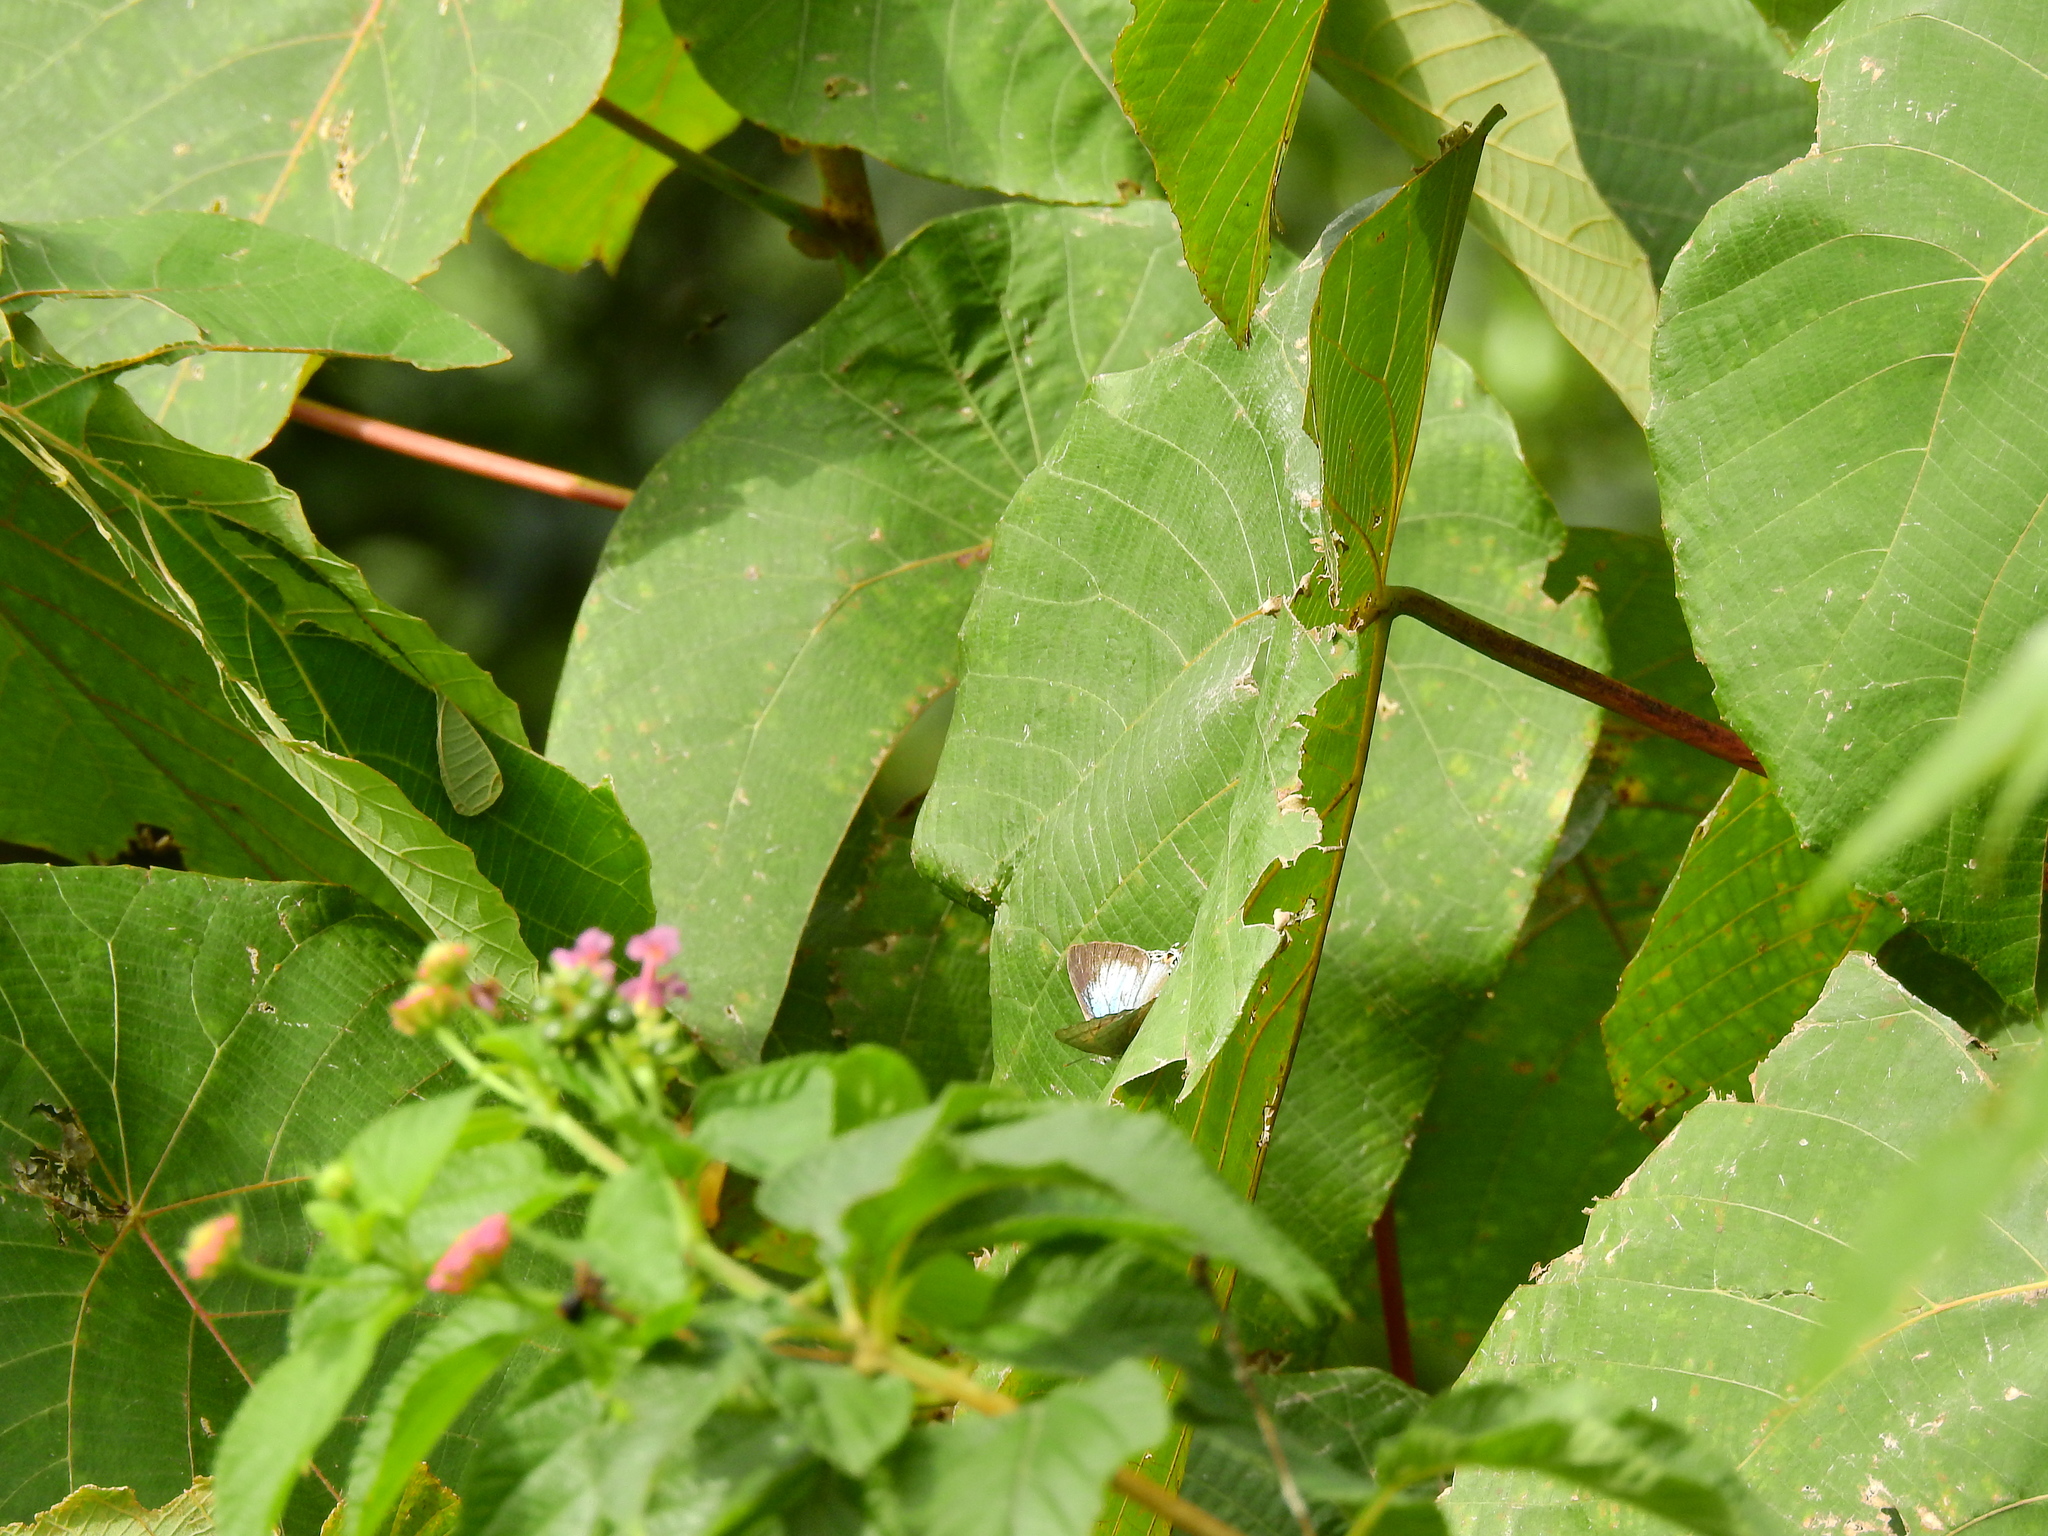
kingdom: Animalia
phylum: Arthropoda
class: Insecta
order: Lepidoptera
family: Lycaenidae
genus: Zesius
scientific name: Zesius chrysomallus
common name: Redspot
